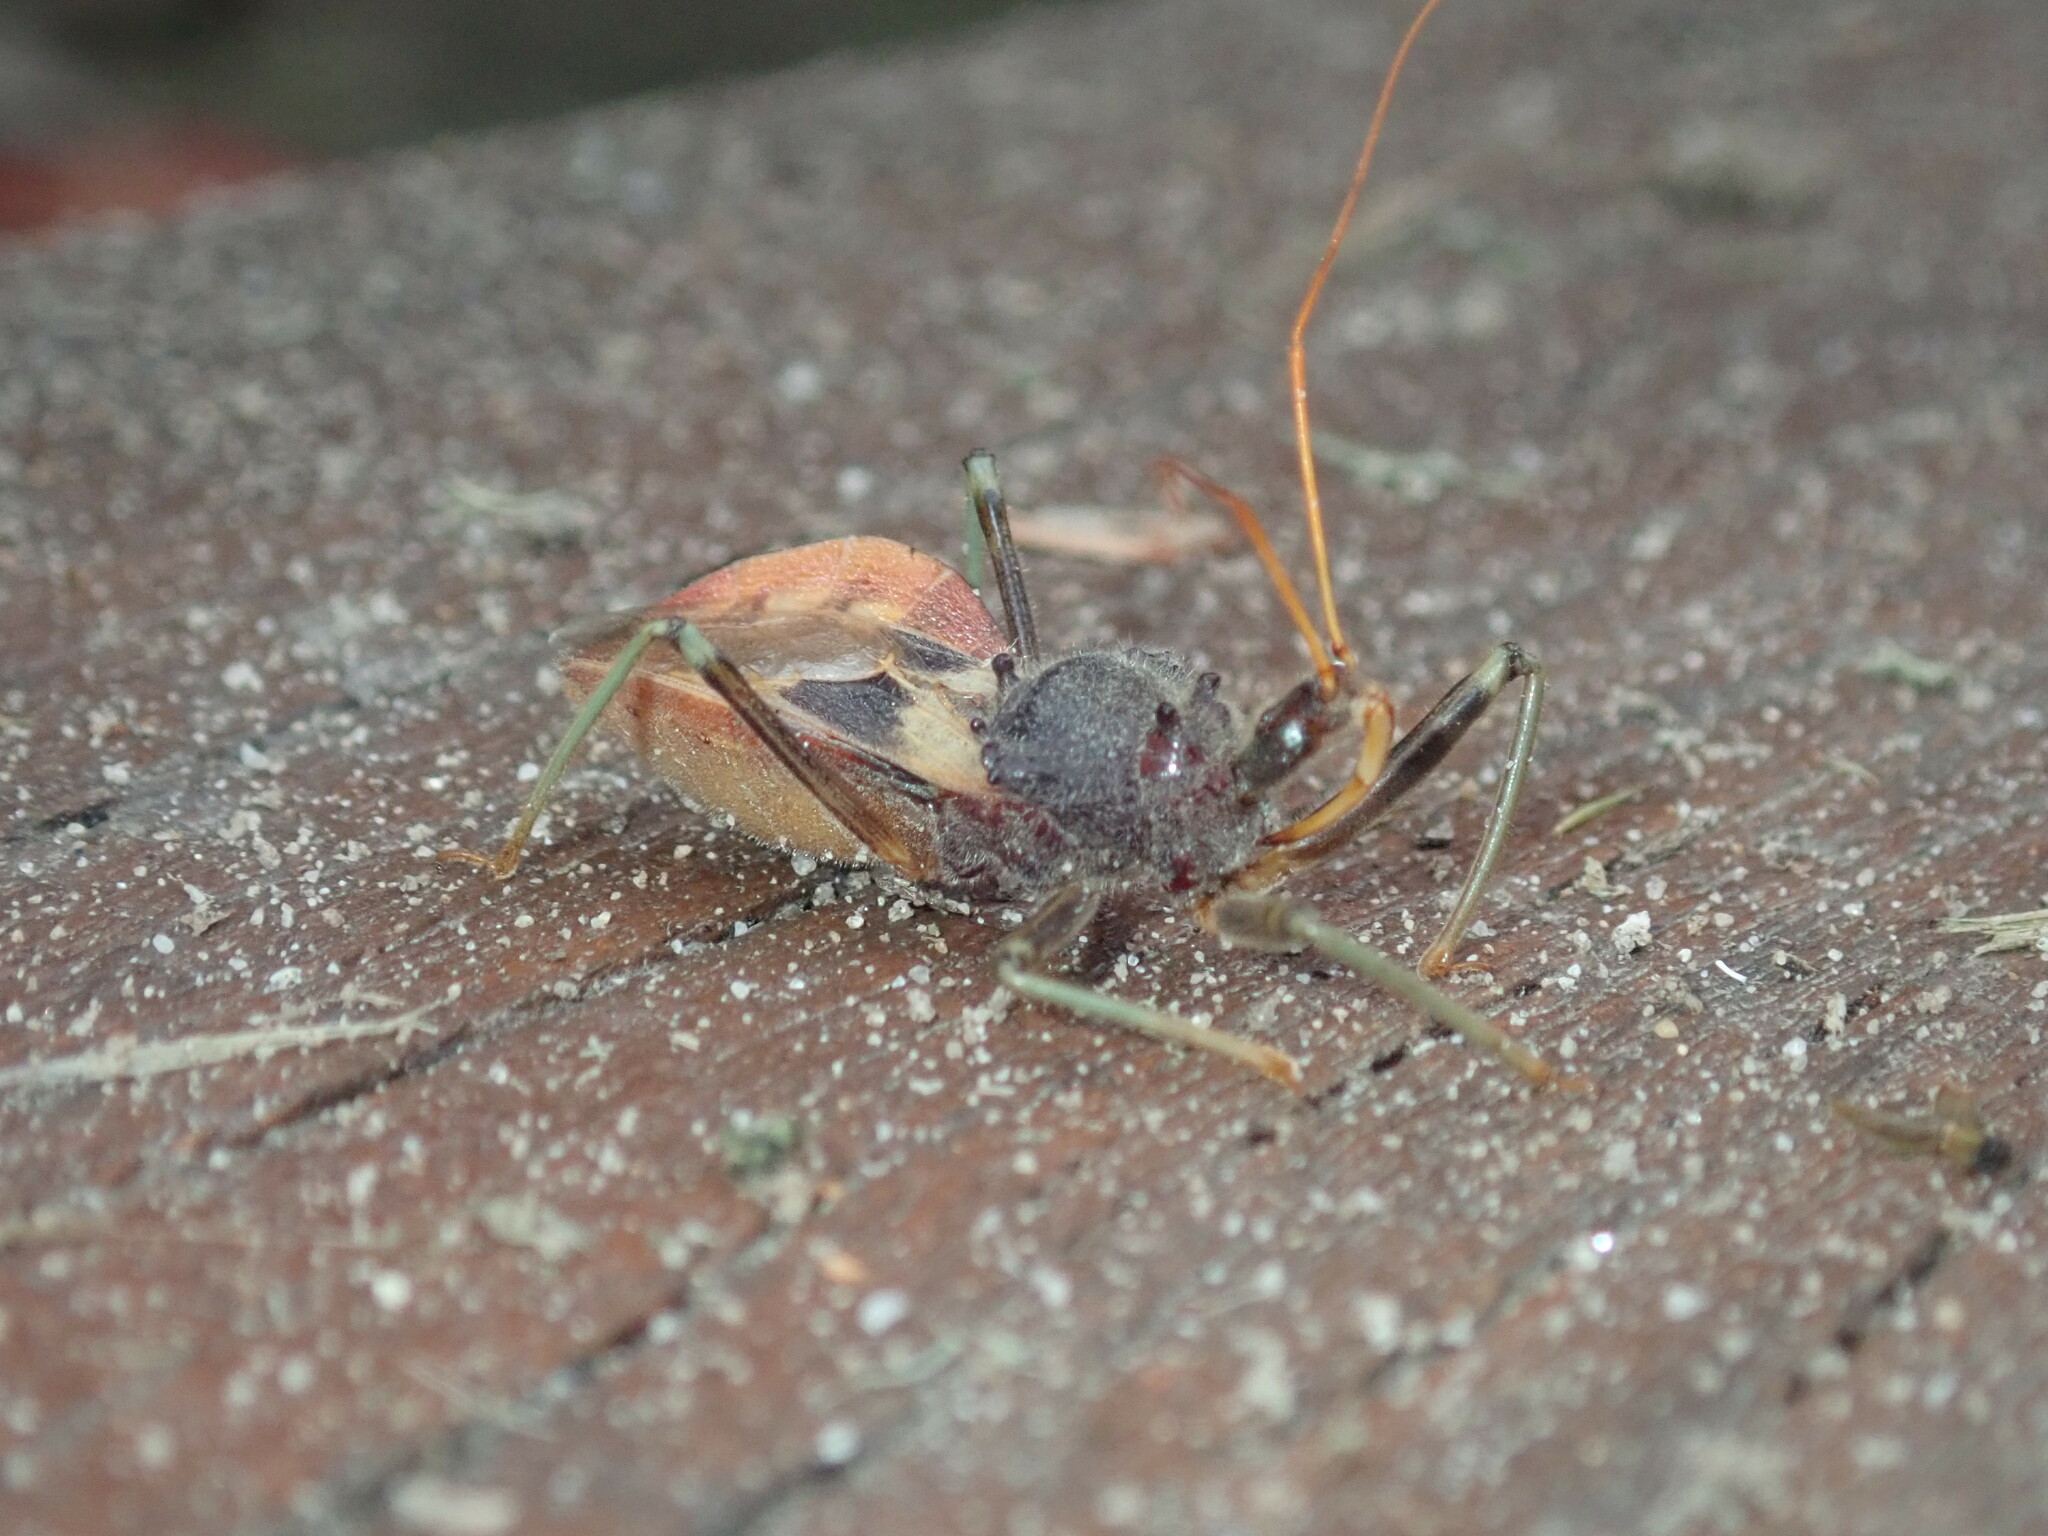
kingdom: Animalia
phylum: Arthropoda
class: Insecta
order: Hemiptera
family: Reduviidae
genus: Pristhesancus
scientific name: Pristhesancus plagipennis
